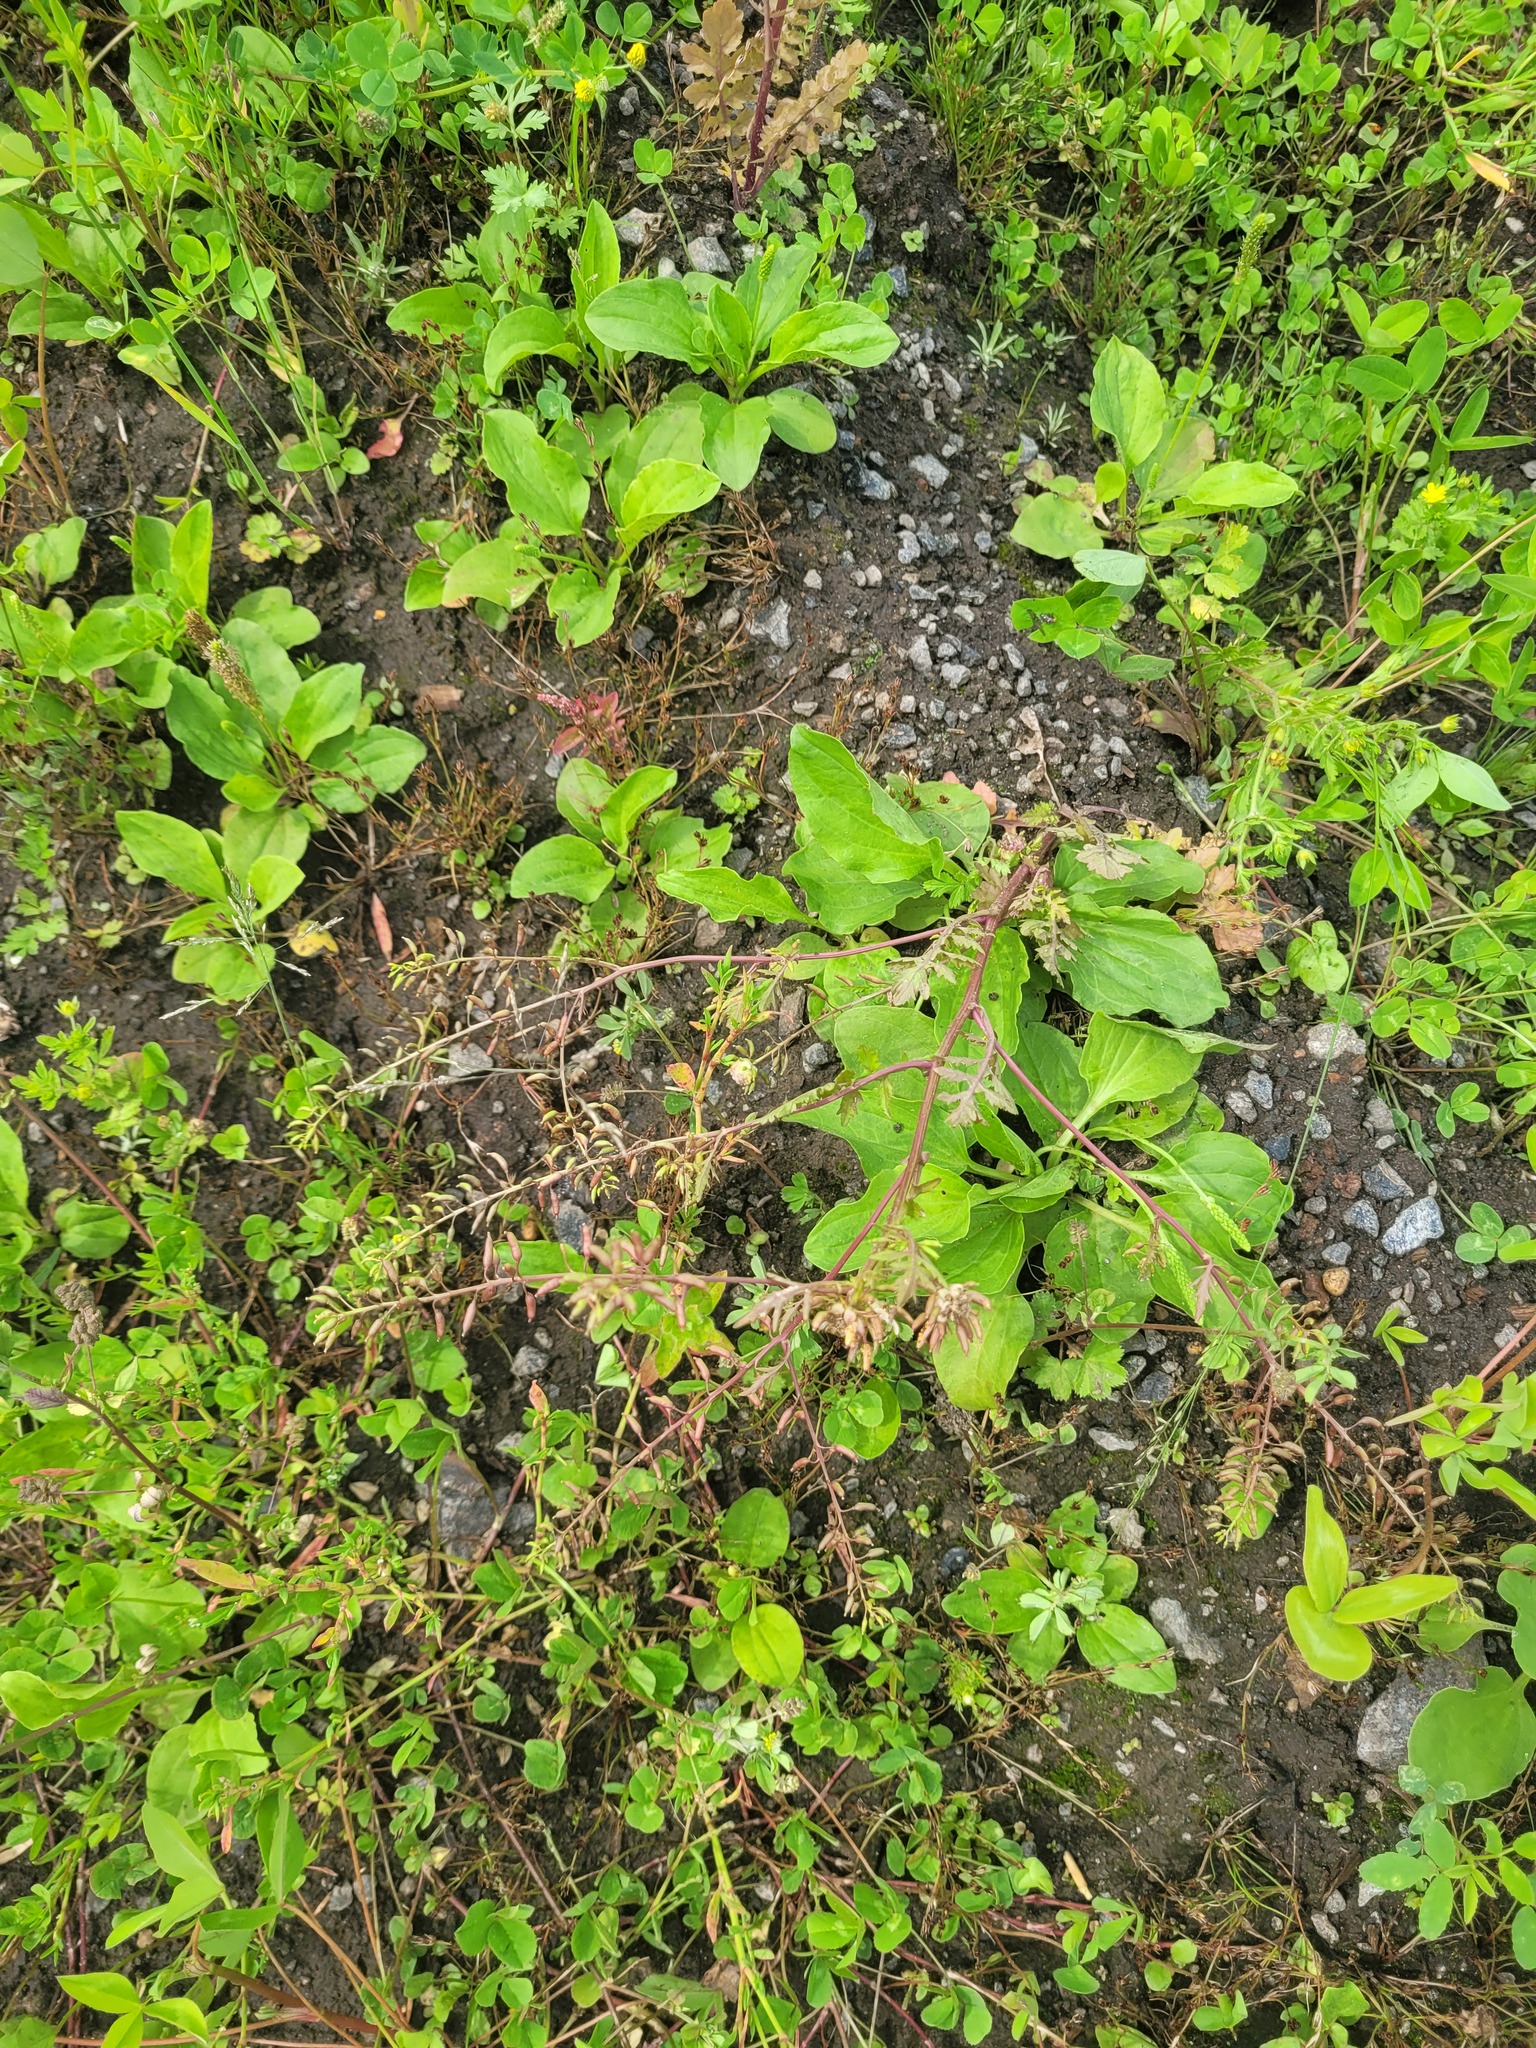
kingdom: Plantae
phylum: Tracheophyta
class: Magnoliopsida
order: Brassicales
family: Brassicaceae
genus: Rorippa
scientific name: Rorippa palustris
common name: Marsh yellow-cress
